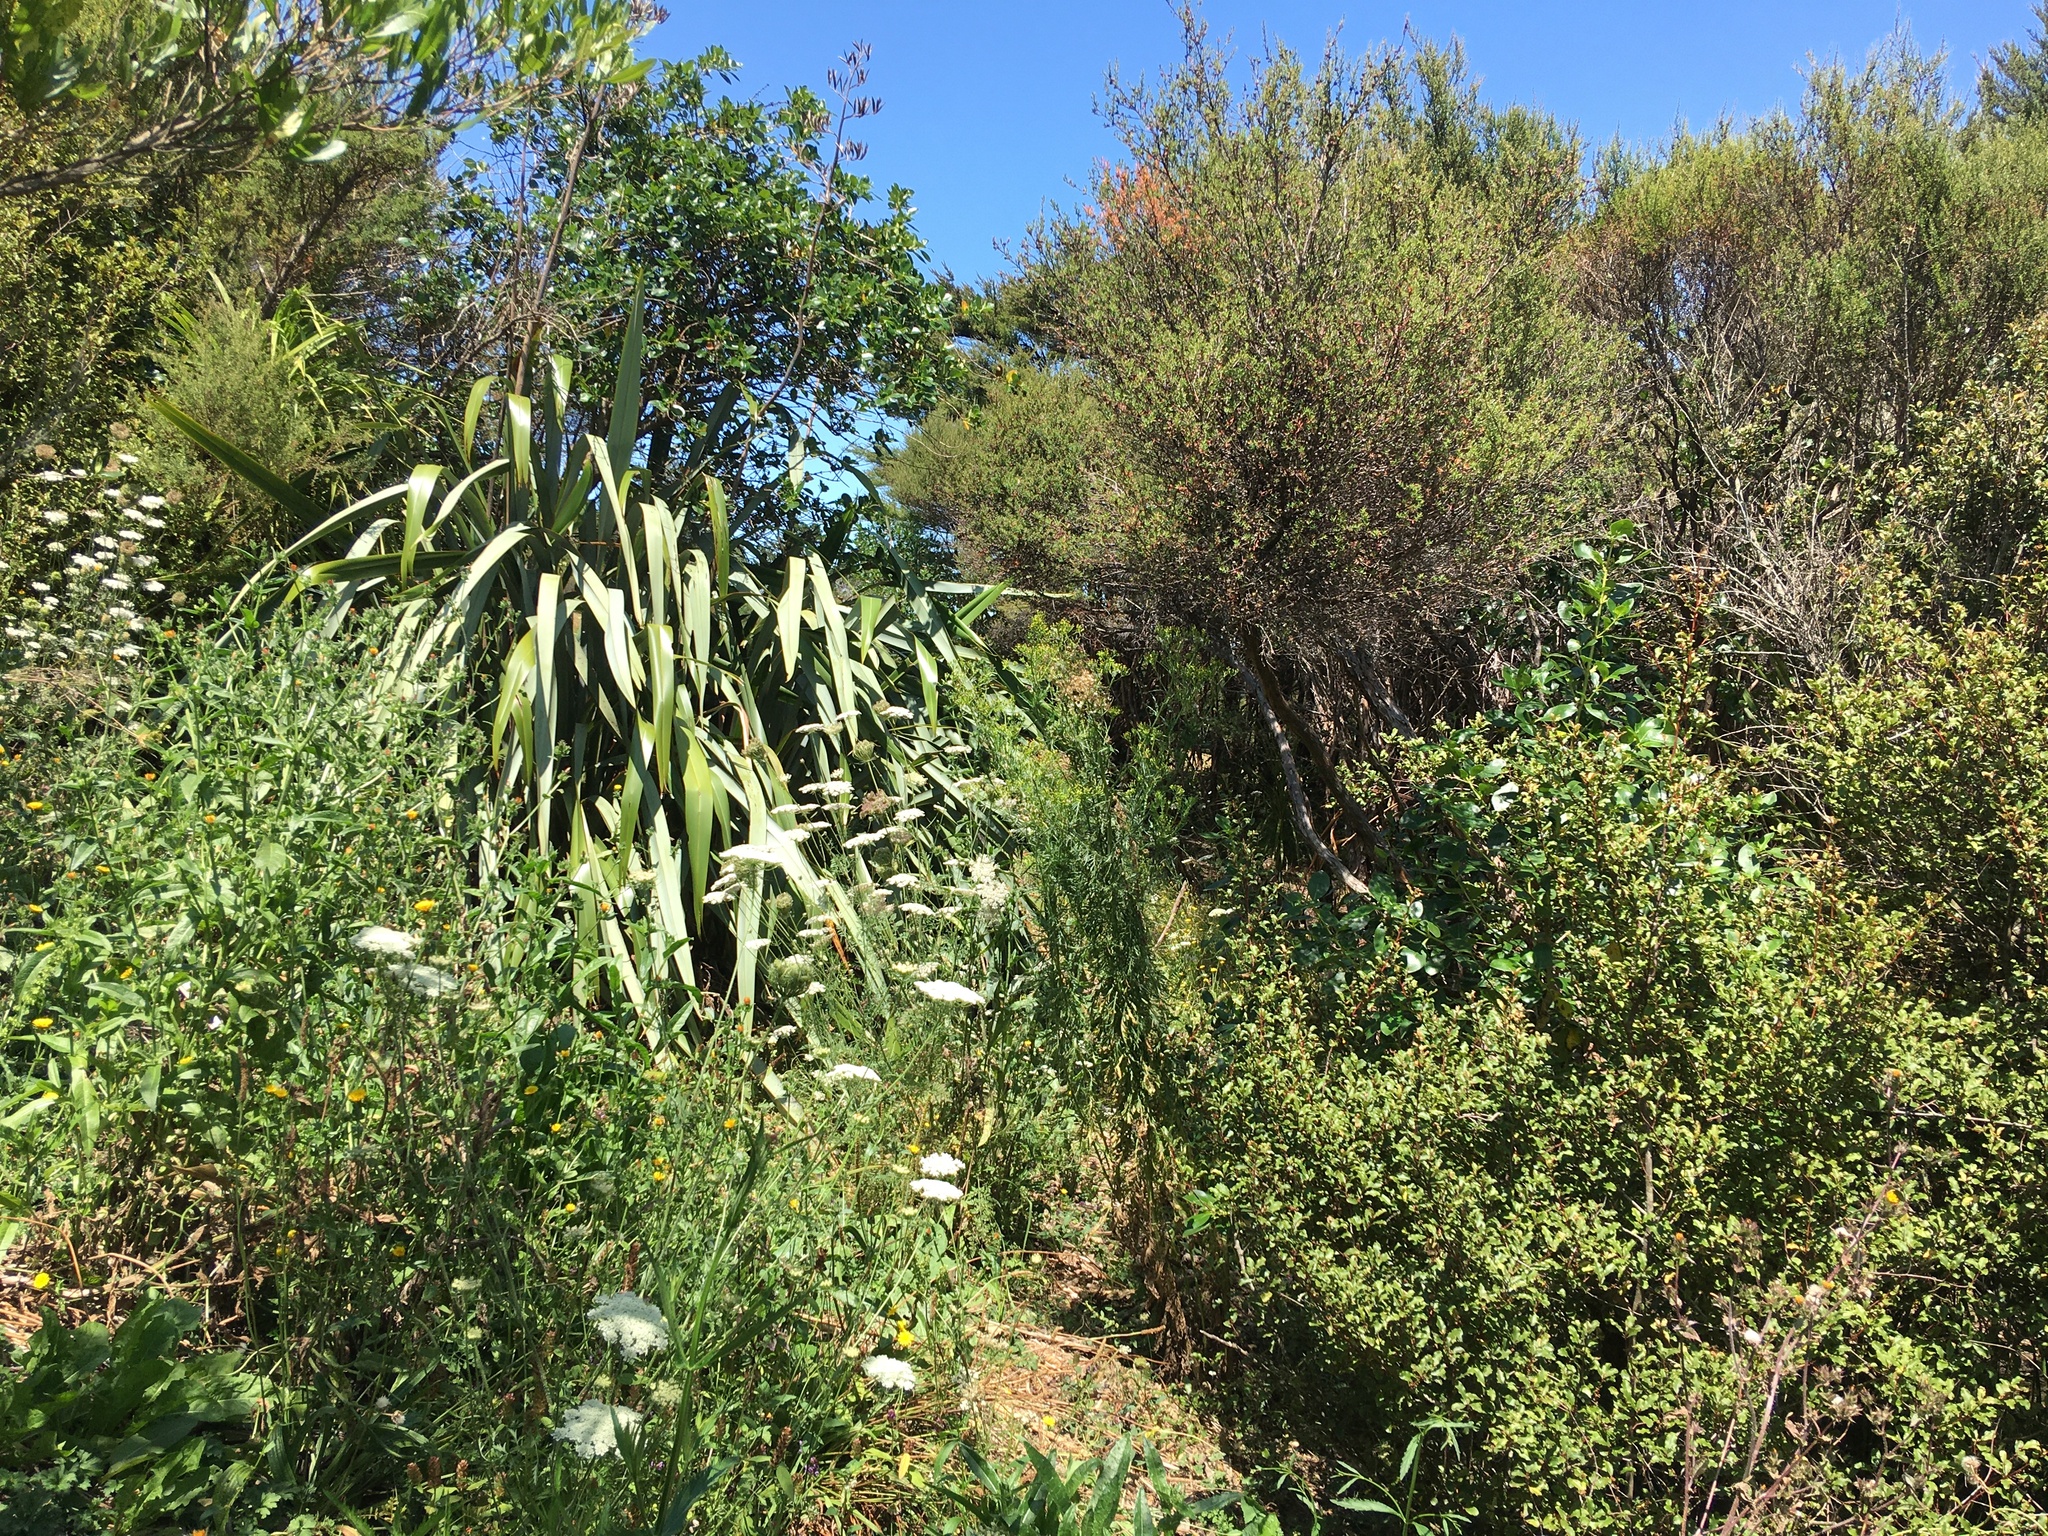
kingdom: Plantae
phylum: Tracheophyta
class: Magnoliopsida
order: Myrtales
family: Myrtaceae
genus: Leptospermum
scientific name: Leptospermum scoparium
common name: Broom tea-tree
